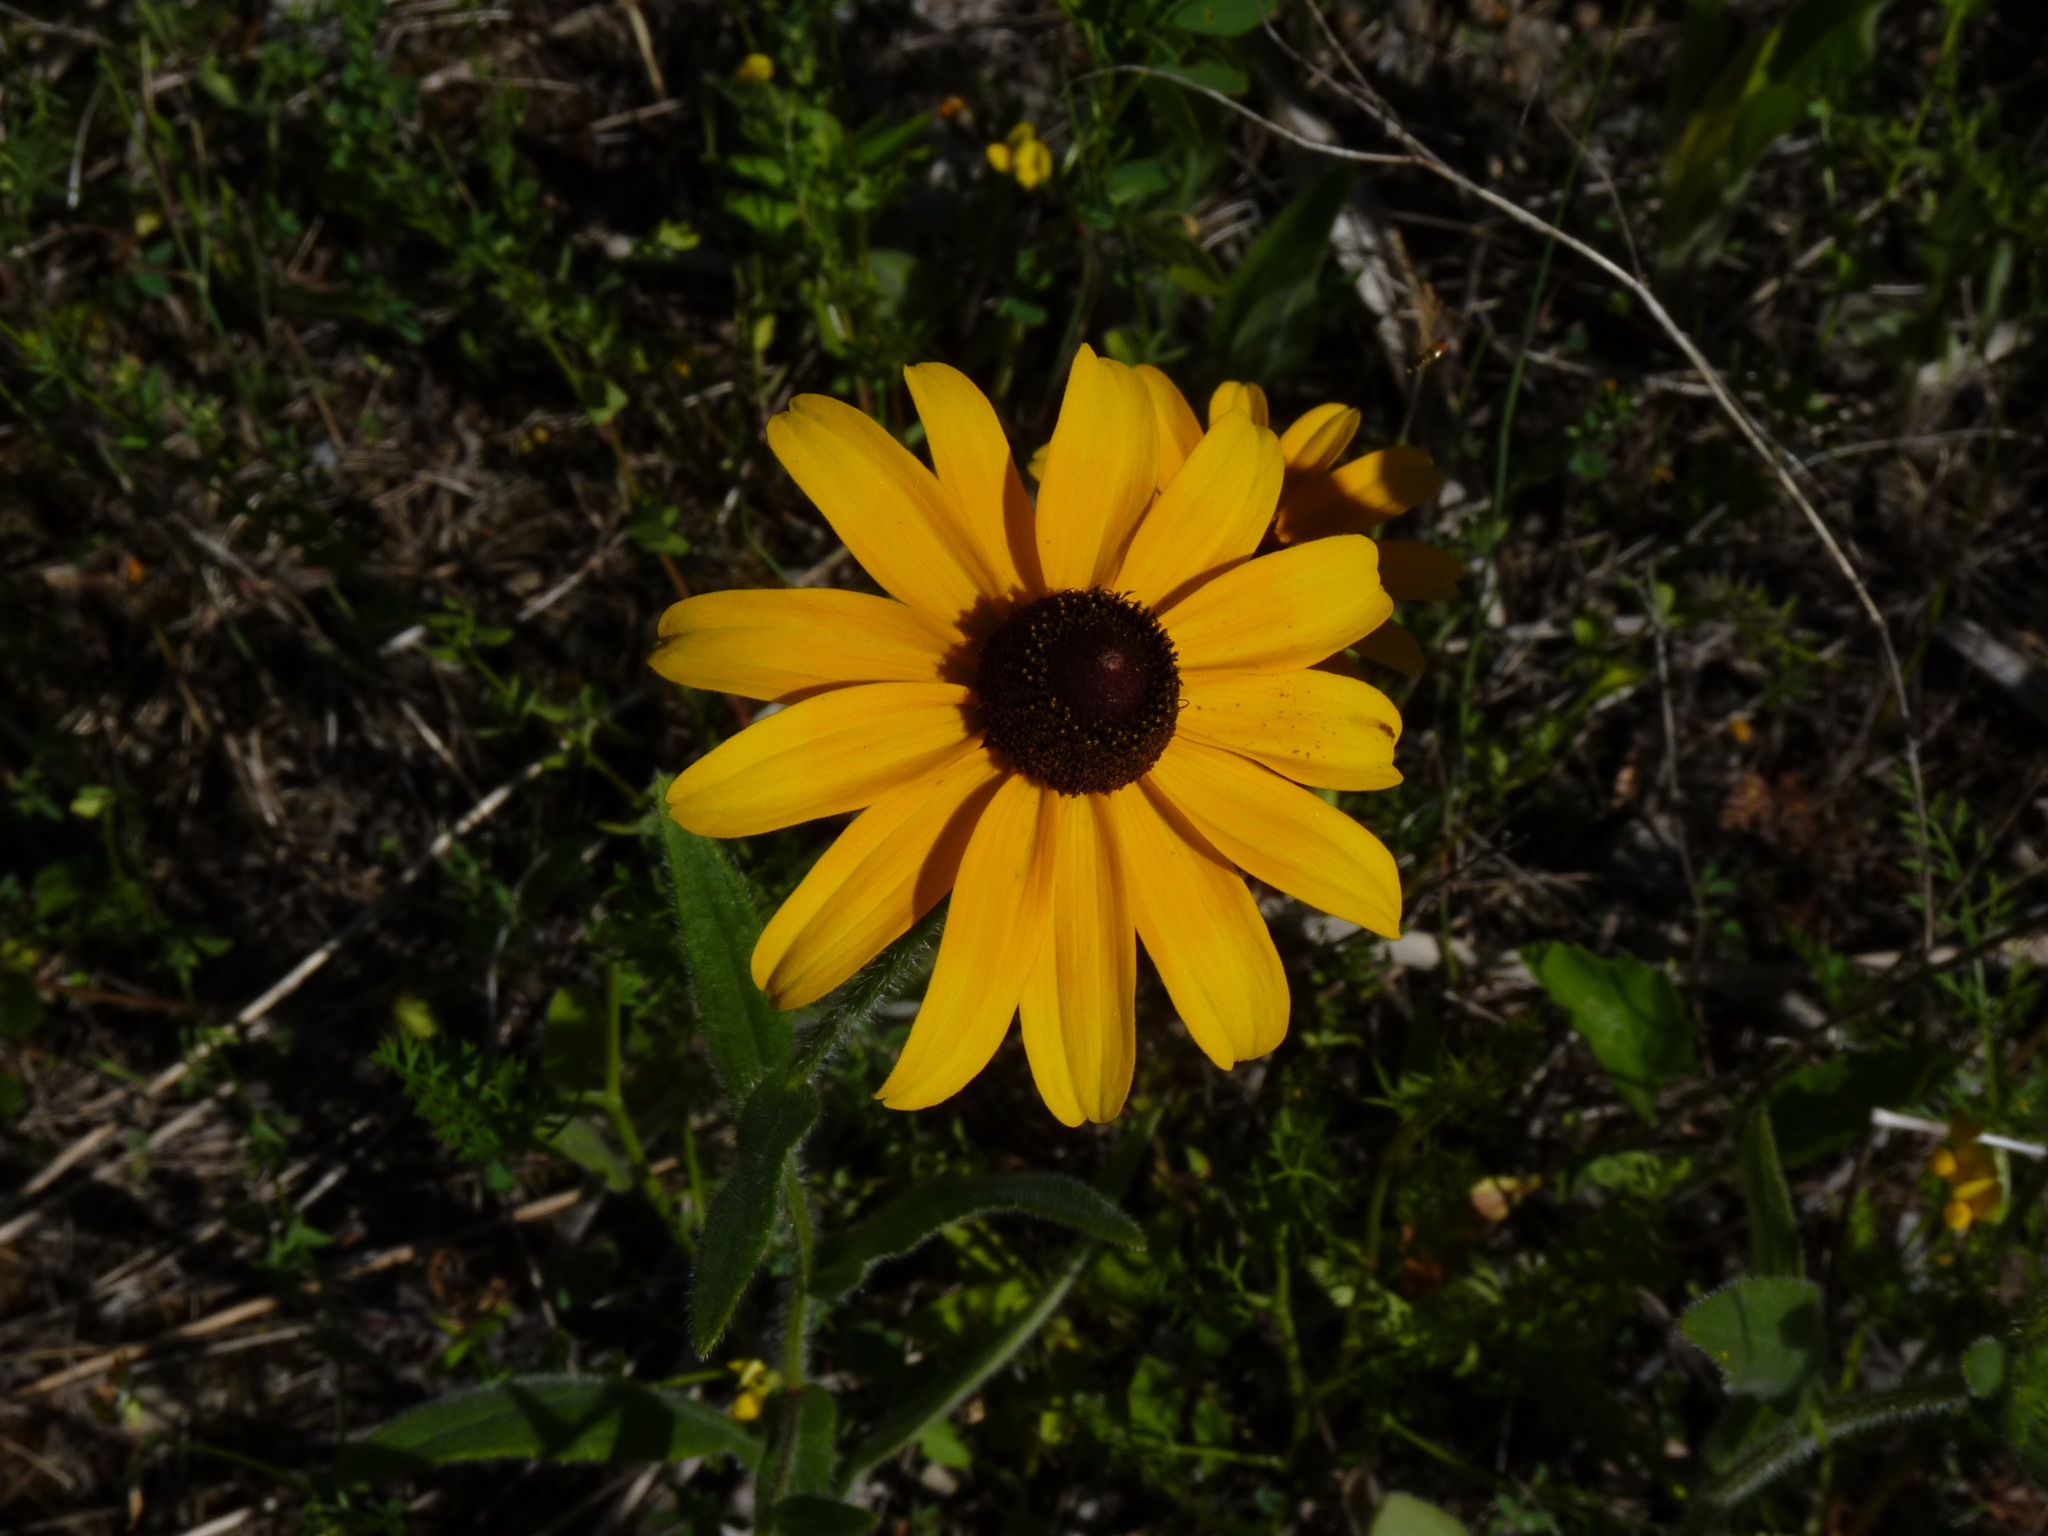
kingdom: Plantae
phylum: Tracheophyta
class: Magnoliopsida
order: Asterales
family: Asteraceae
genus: Rudbeckia
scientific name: Rudbeckia hirta
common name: Black-eyed-susan
